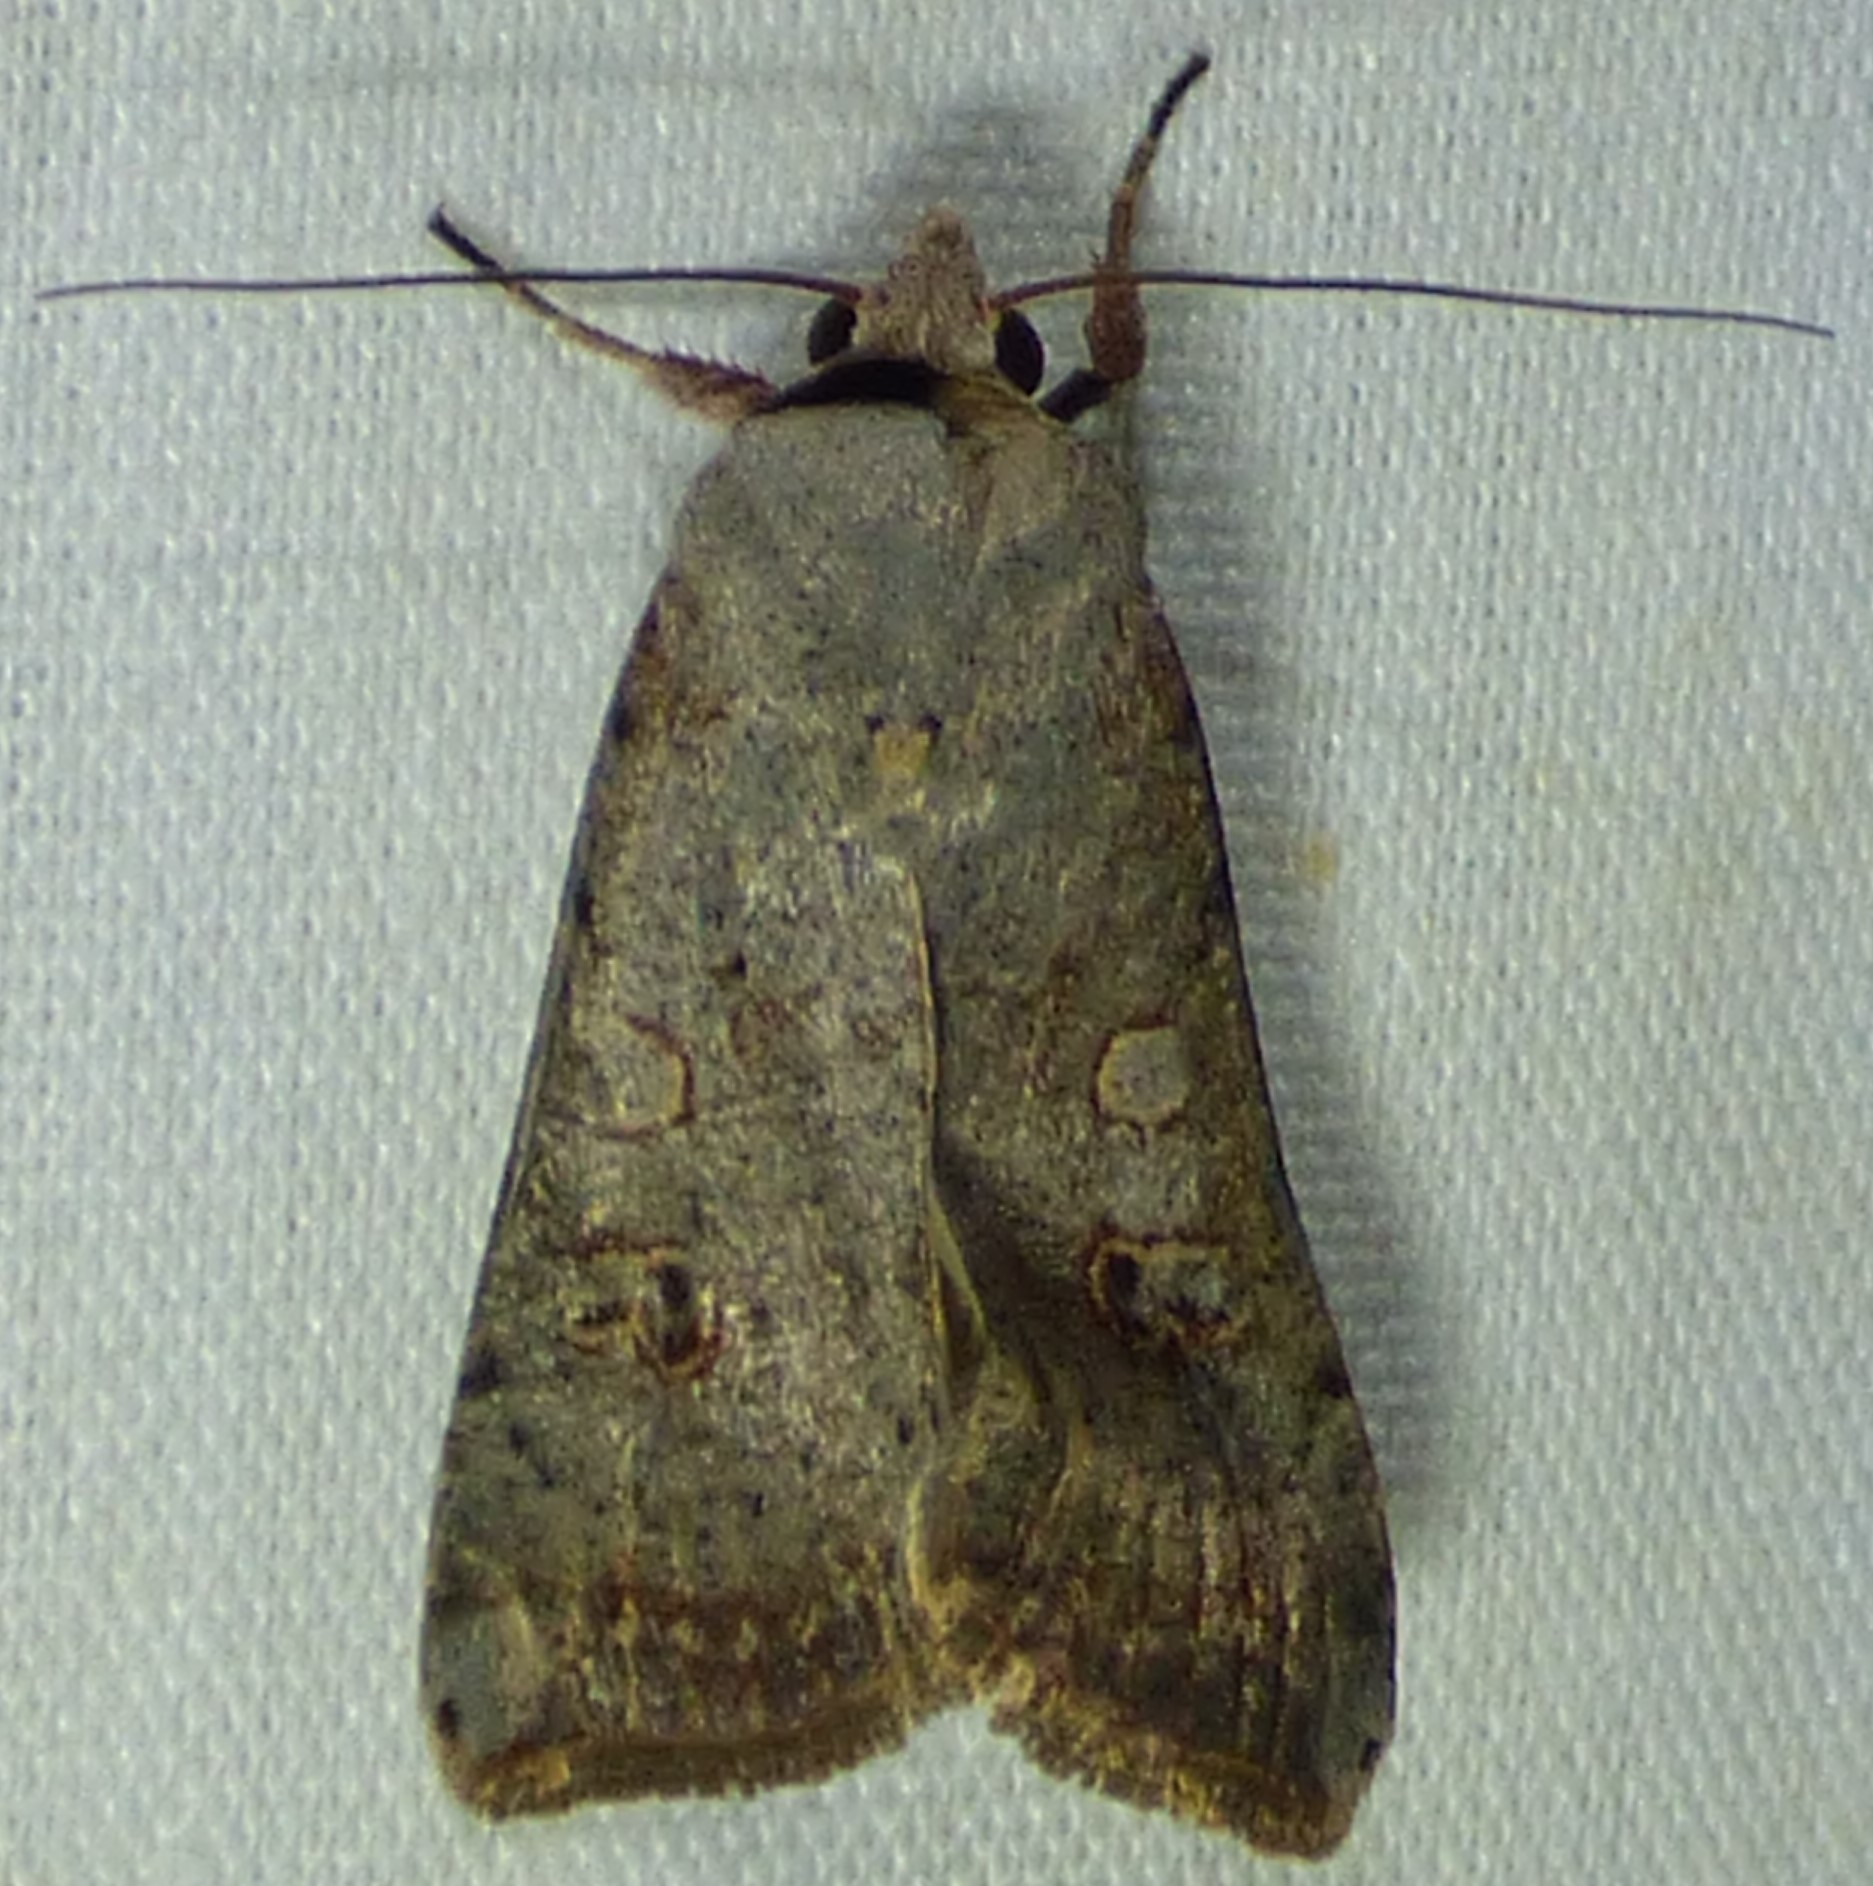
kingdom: Animalia
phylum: Arthropoda
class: Insecta
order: Lepidoptera
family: Noctuidae
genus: Anicla
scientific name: Anicla infecta
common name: Green cutworm
